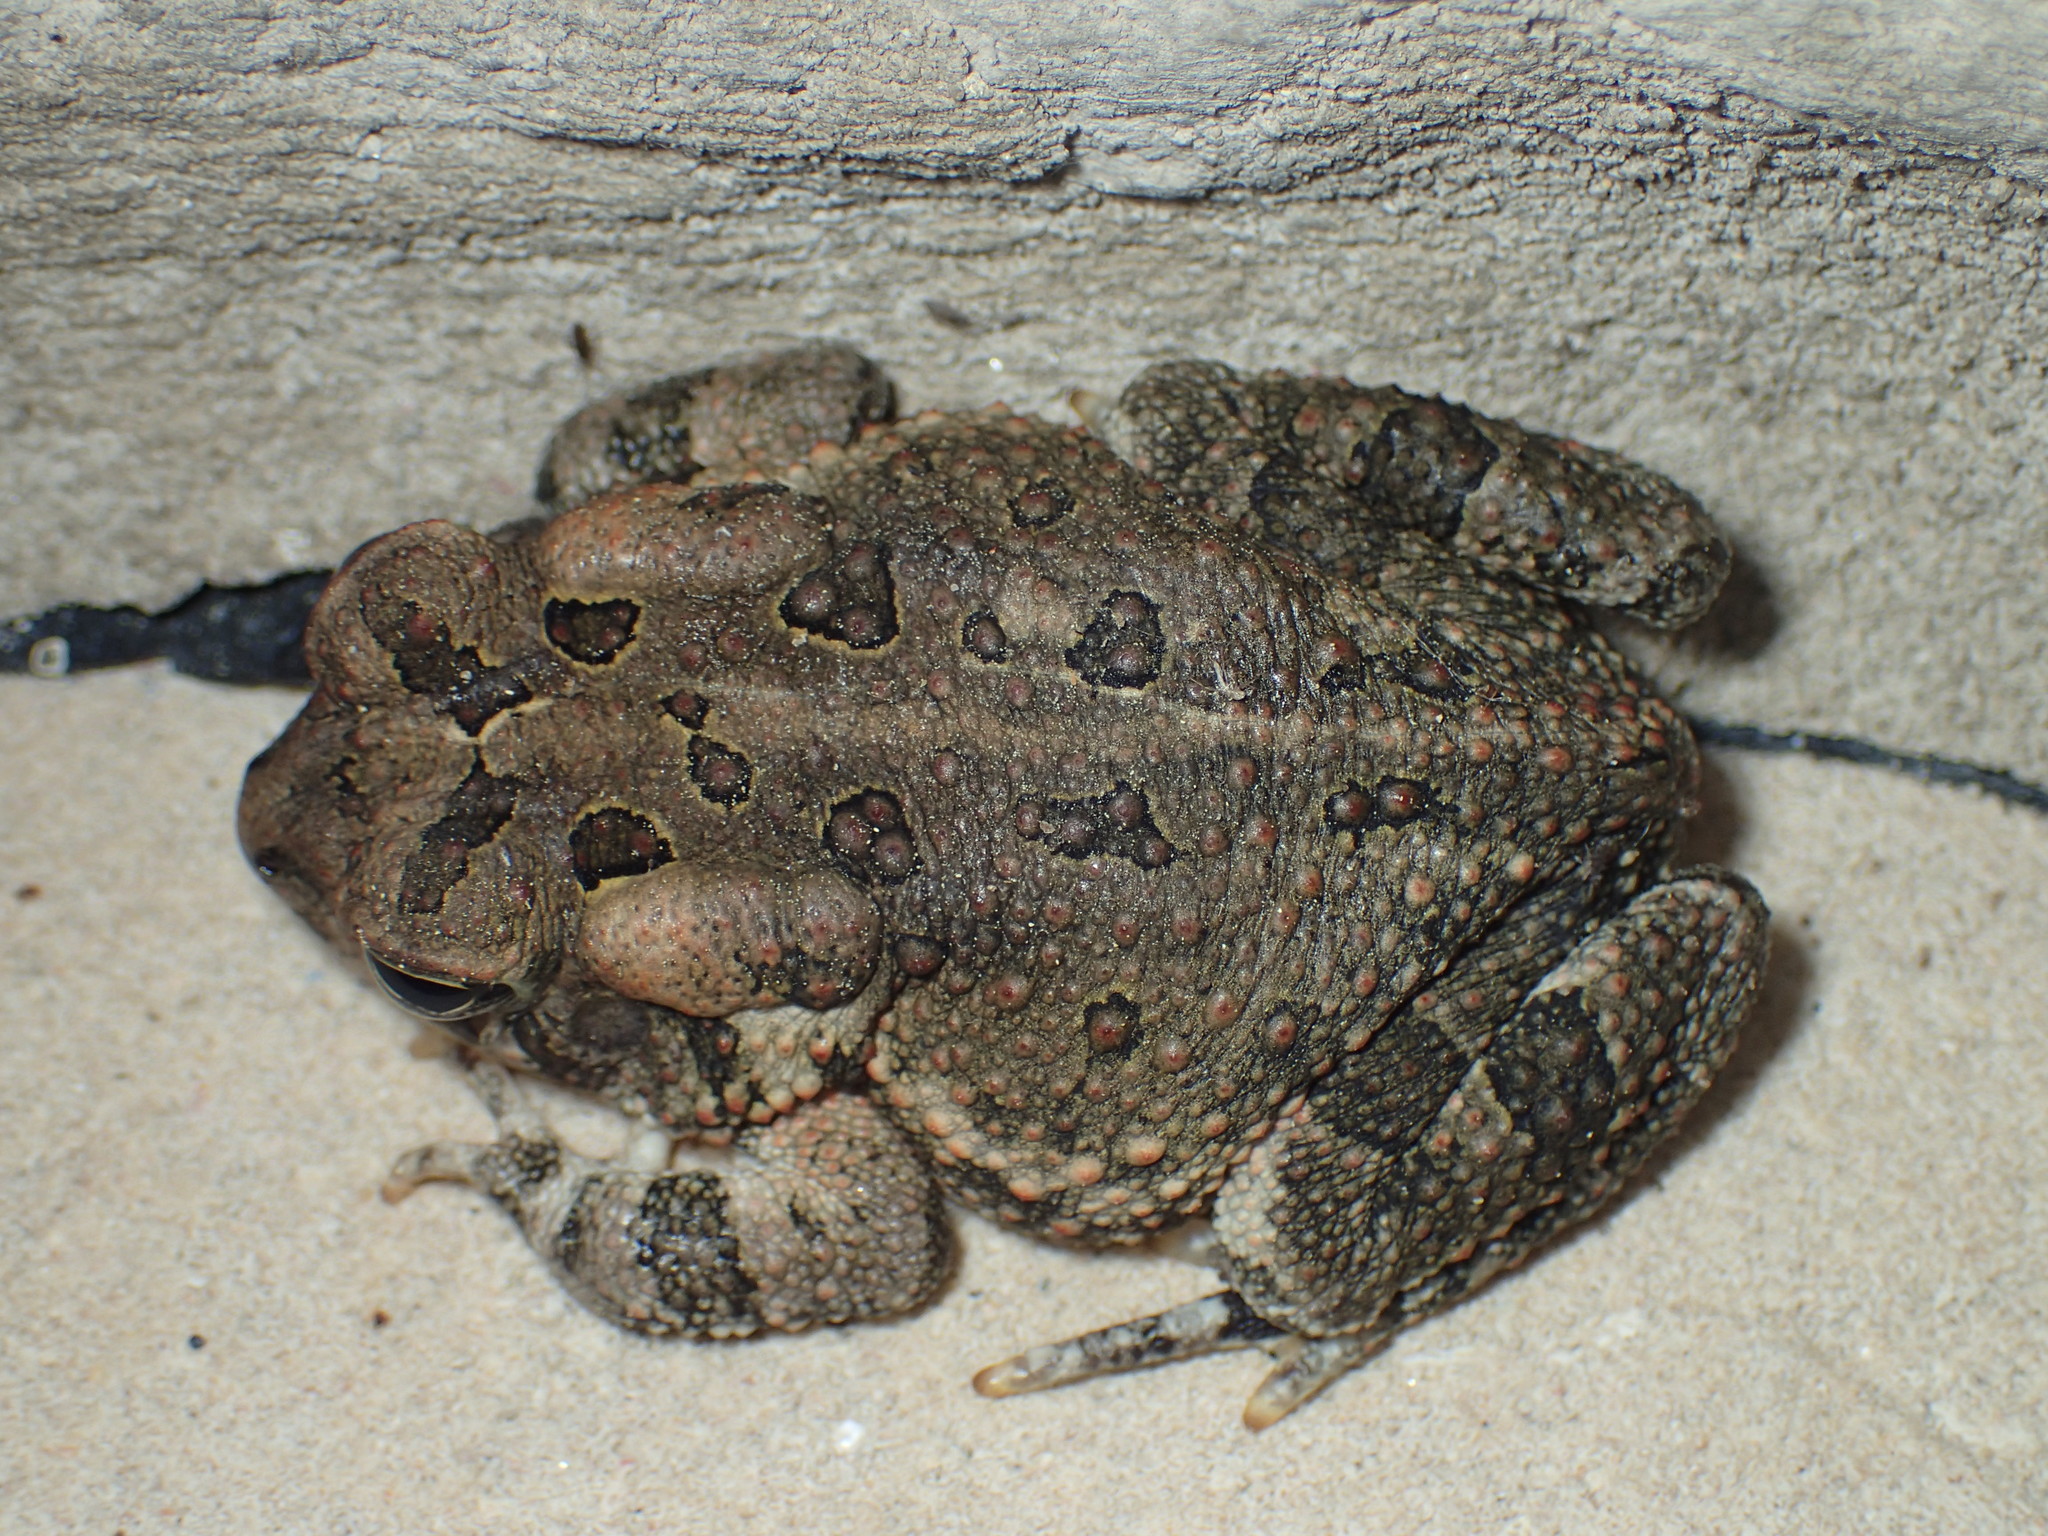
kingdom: Animalia
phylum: Chordata
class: Amphibia
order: Anura
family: Bufonidae
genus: Anaxyrus
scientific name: Anaxyrus fowleri
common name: Fowler's toad
